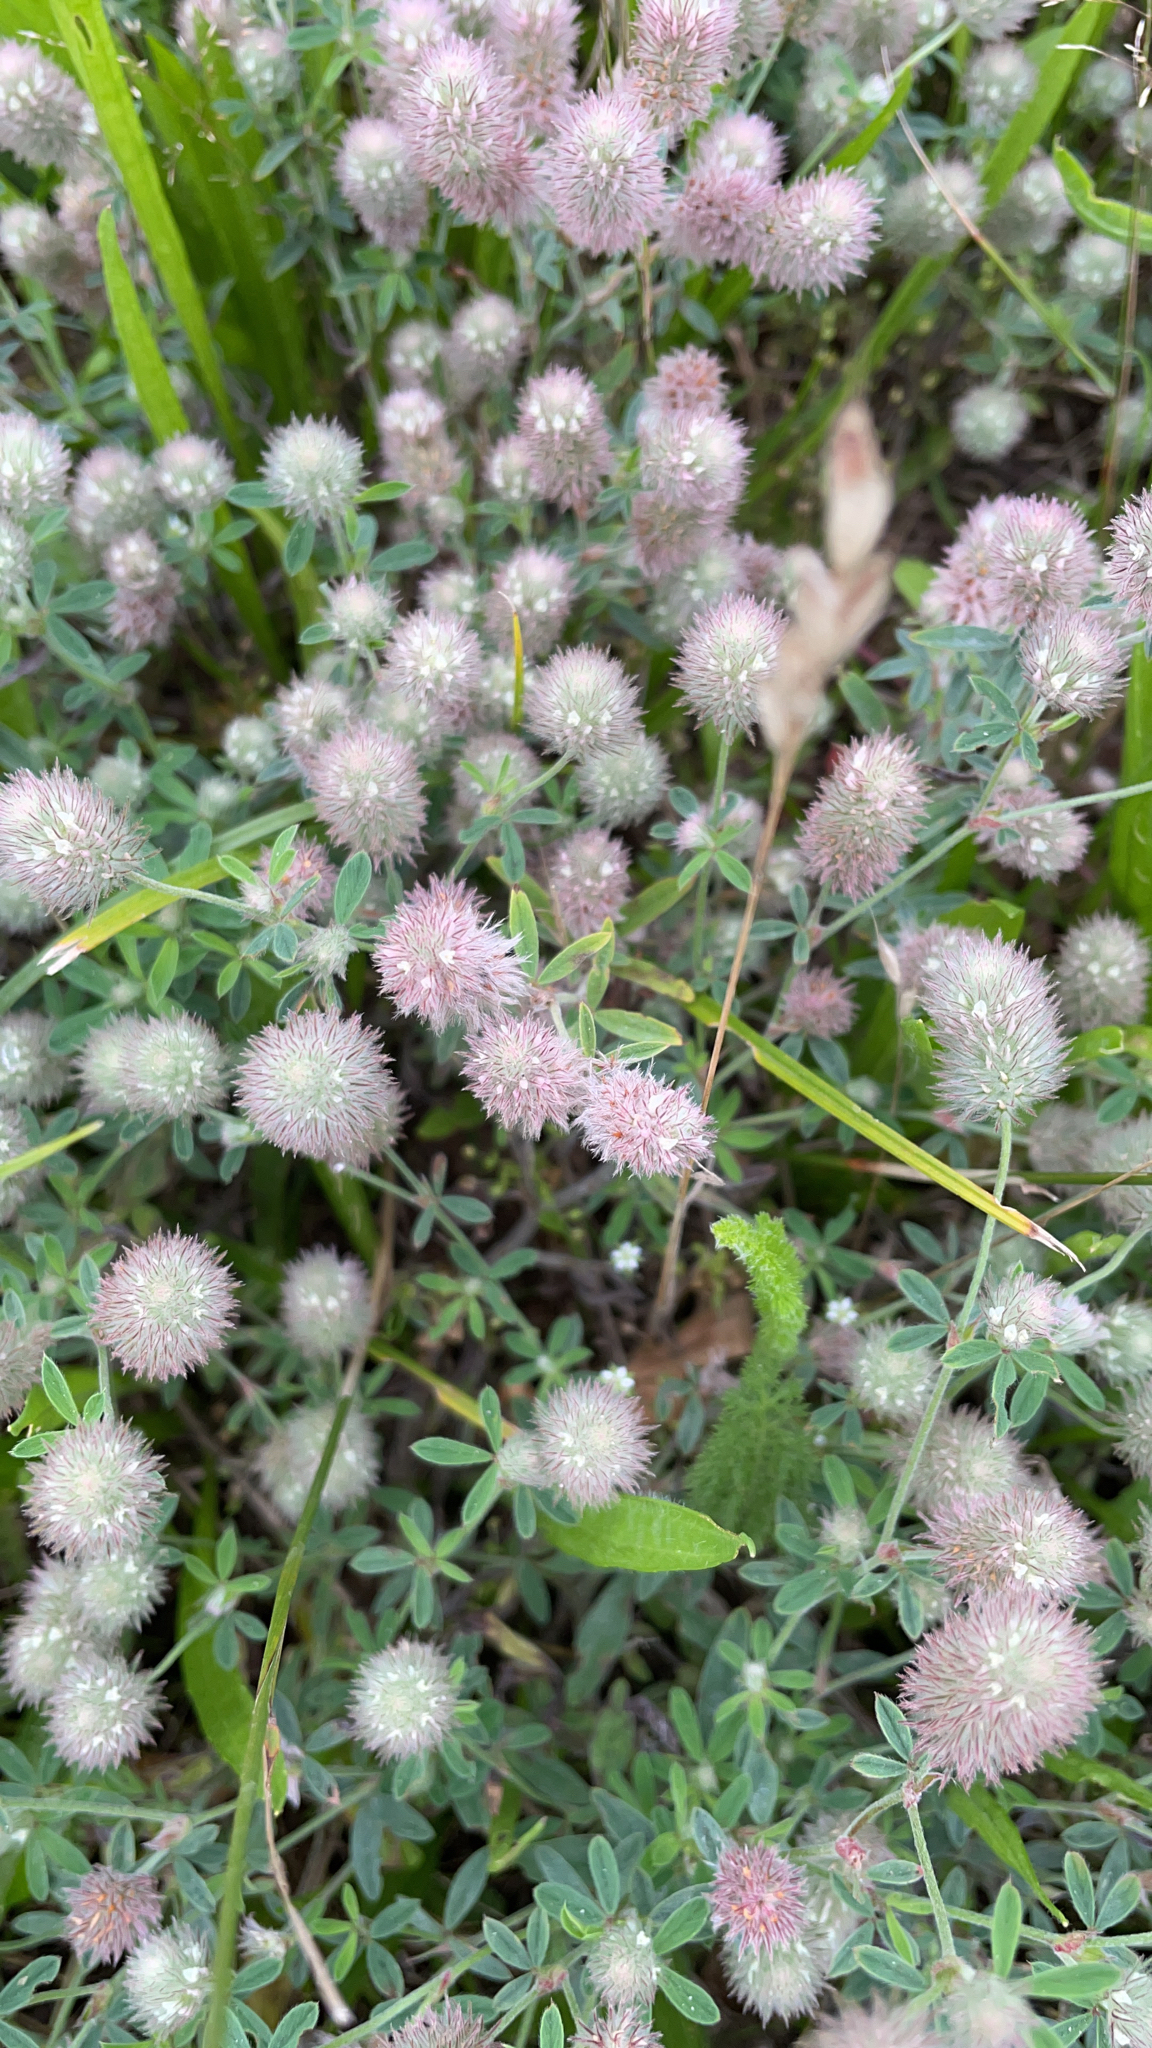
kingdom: Plantae
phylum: Tracheophyta
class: Magnoliopsida
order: Fabales
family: Fabaceae
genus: Trifolium
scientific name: Trifolium arvense
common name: Hare's-foot clover
